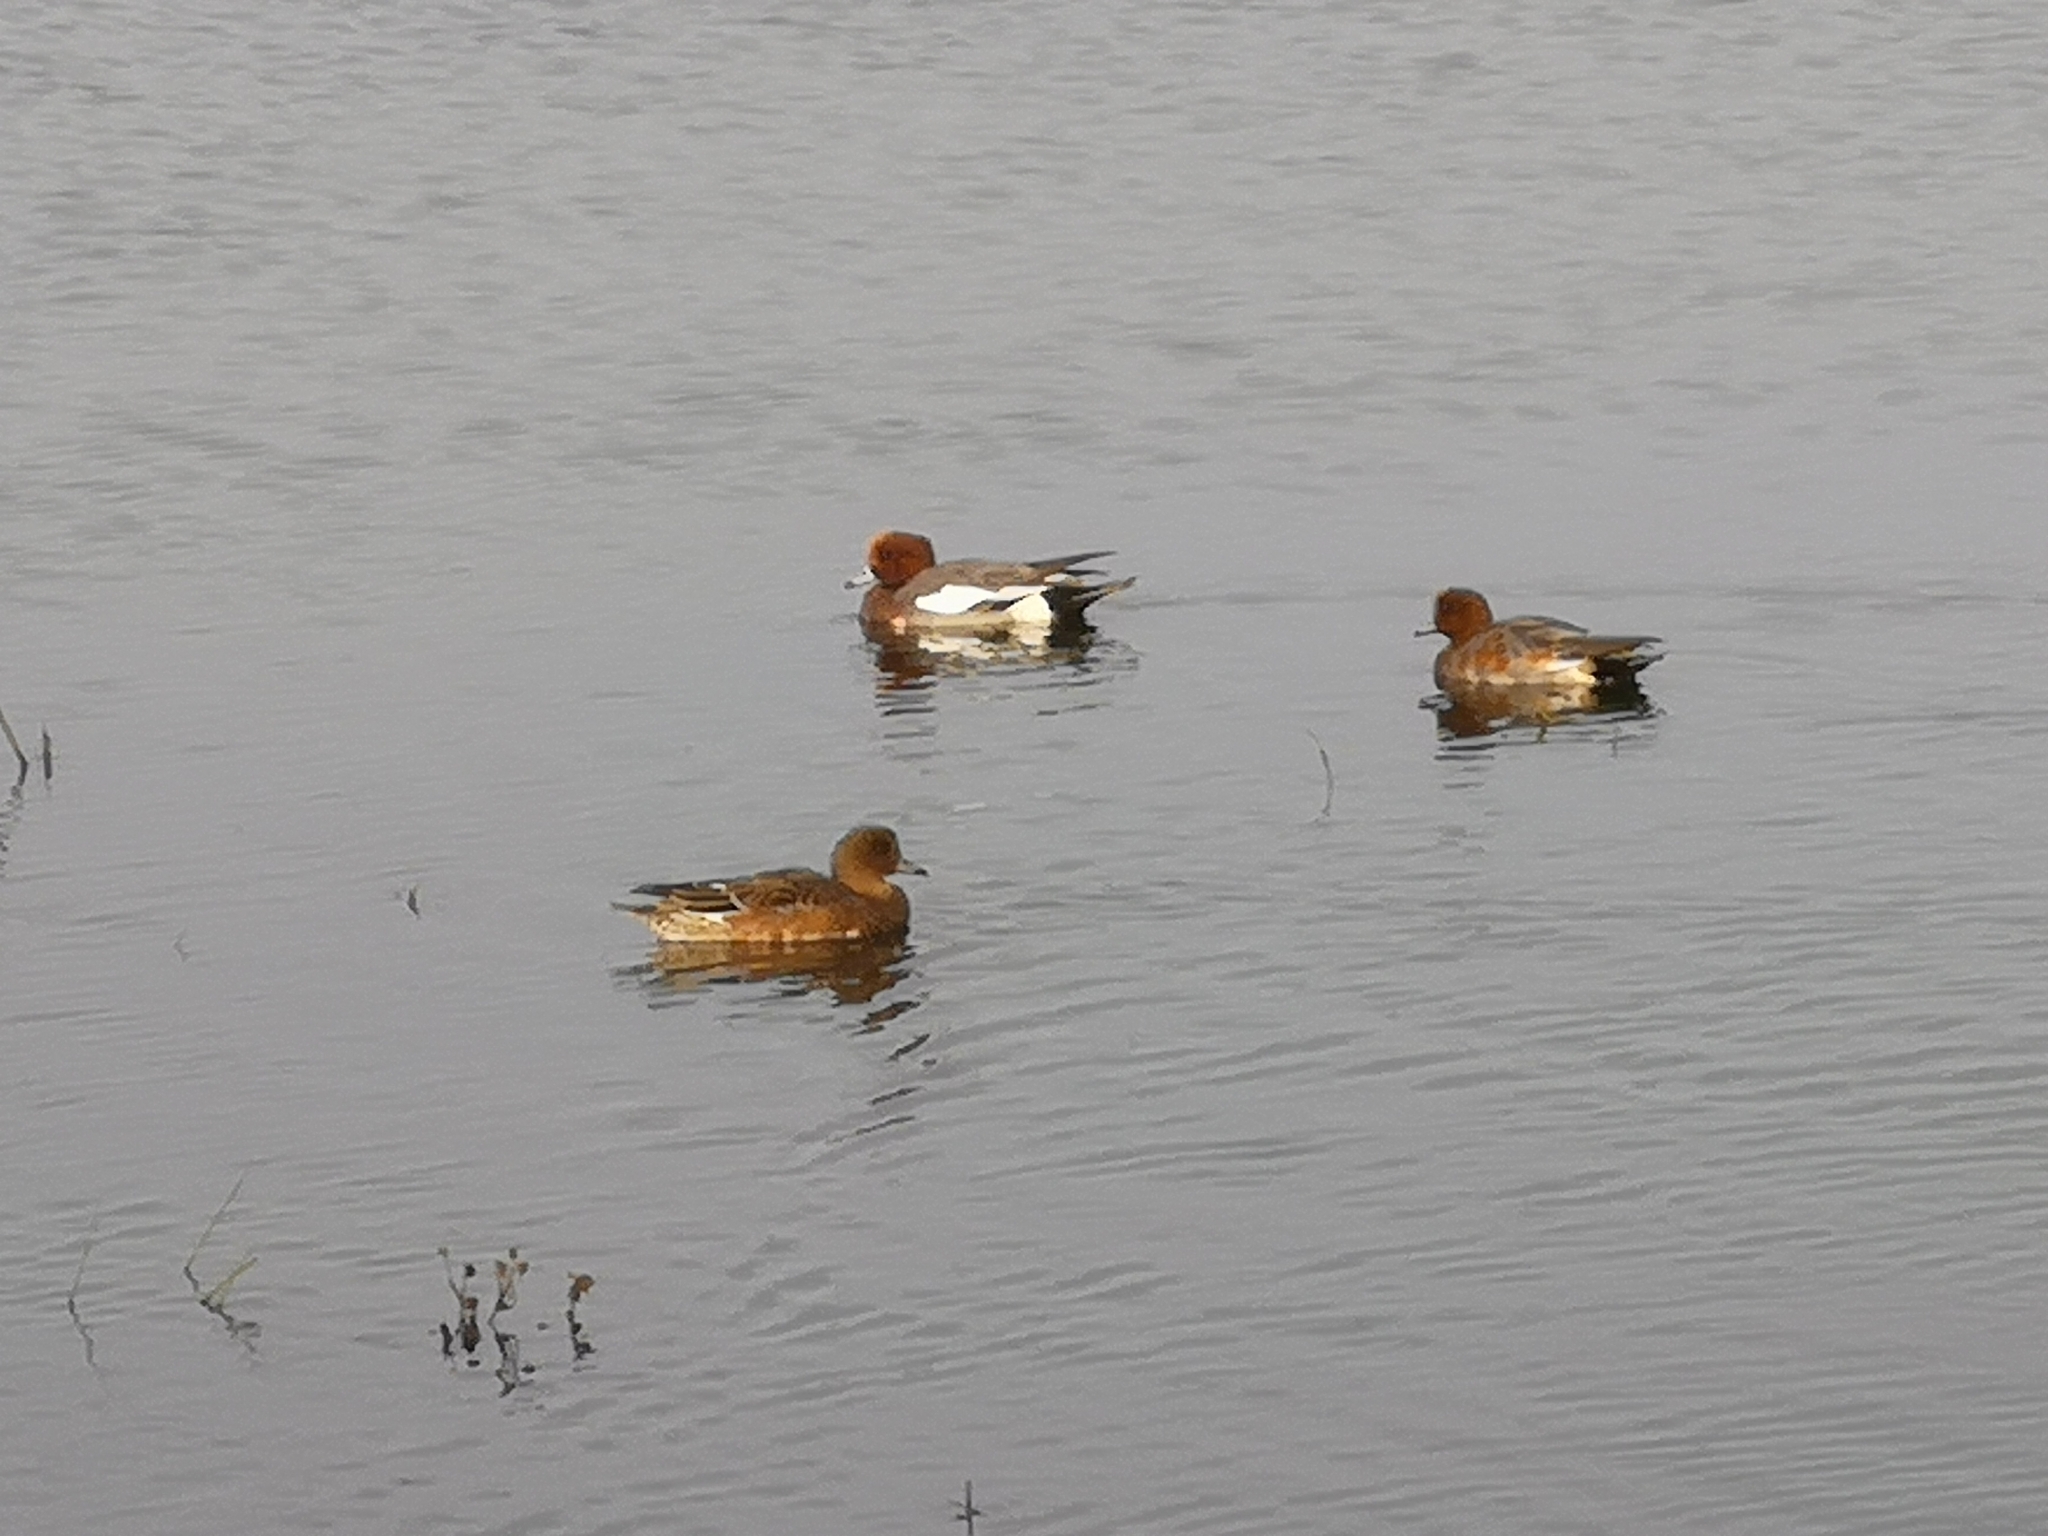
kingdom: Animalia
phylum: Chordata
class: Aves
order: Anseriformes
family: Anatidae
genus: Mareca
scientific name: Mareca penelope
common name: Eurasian wigeon
